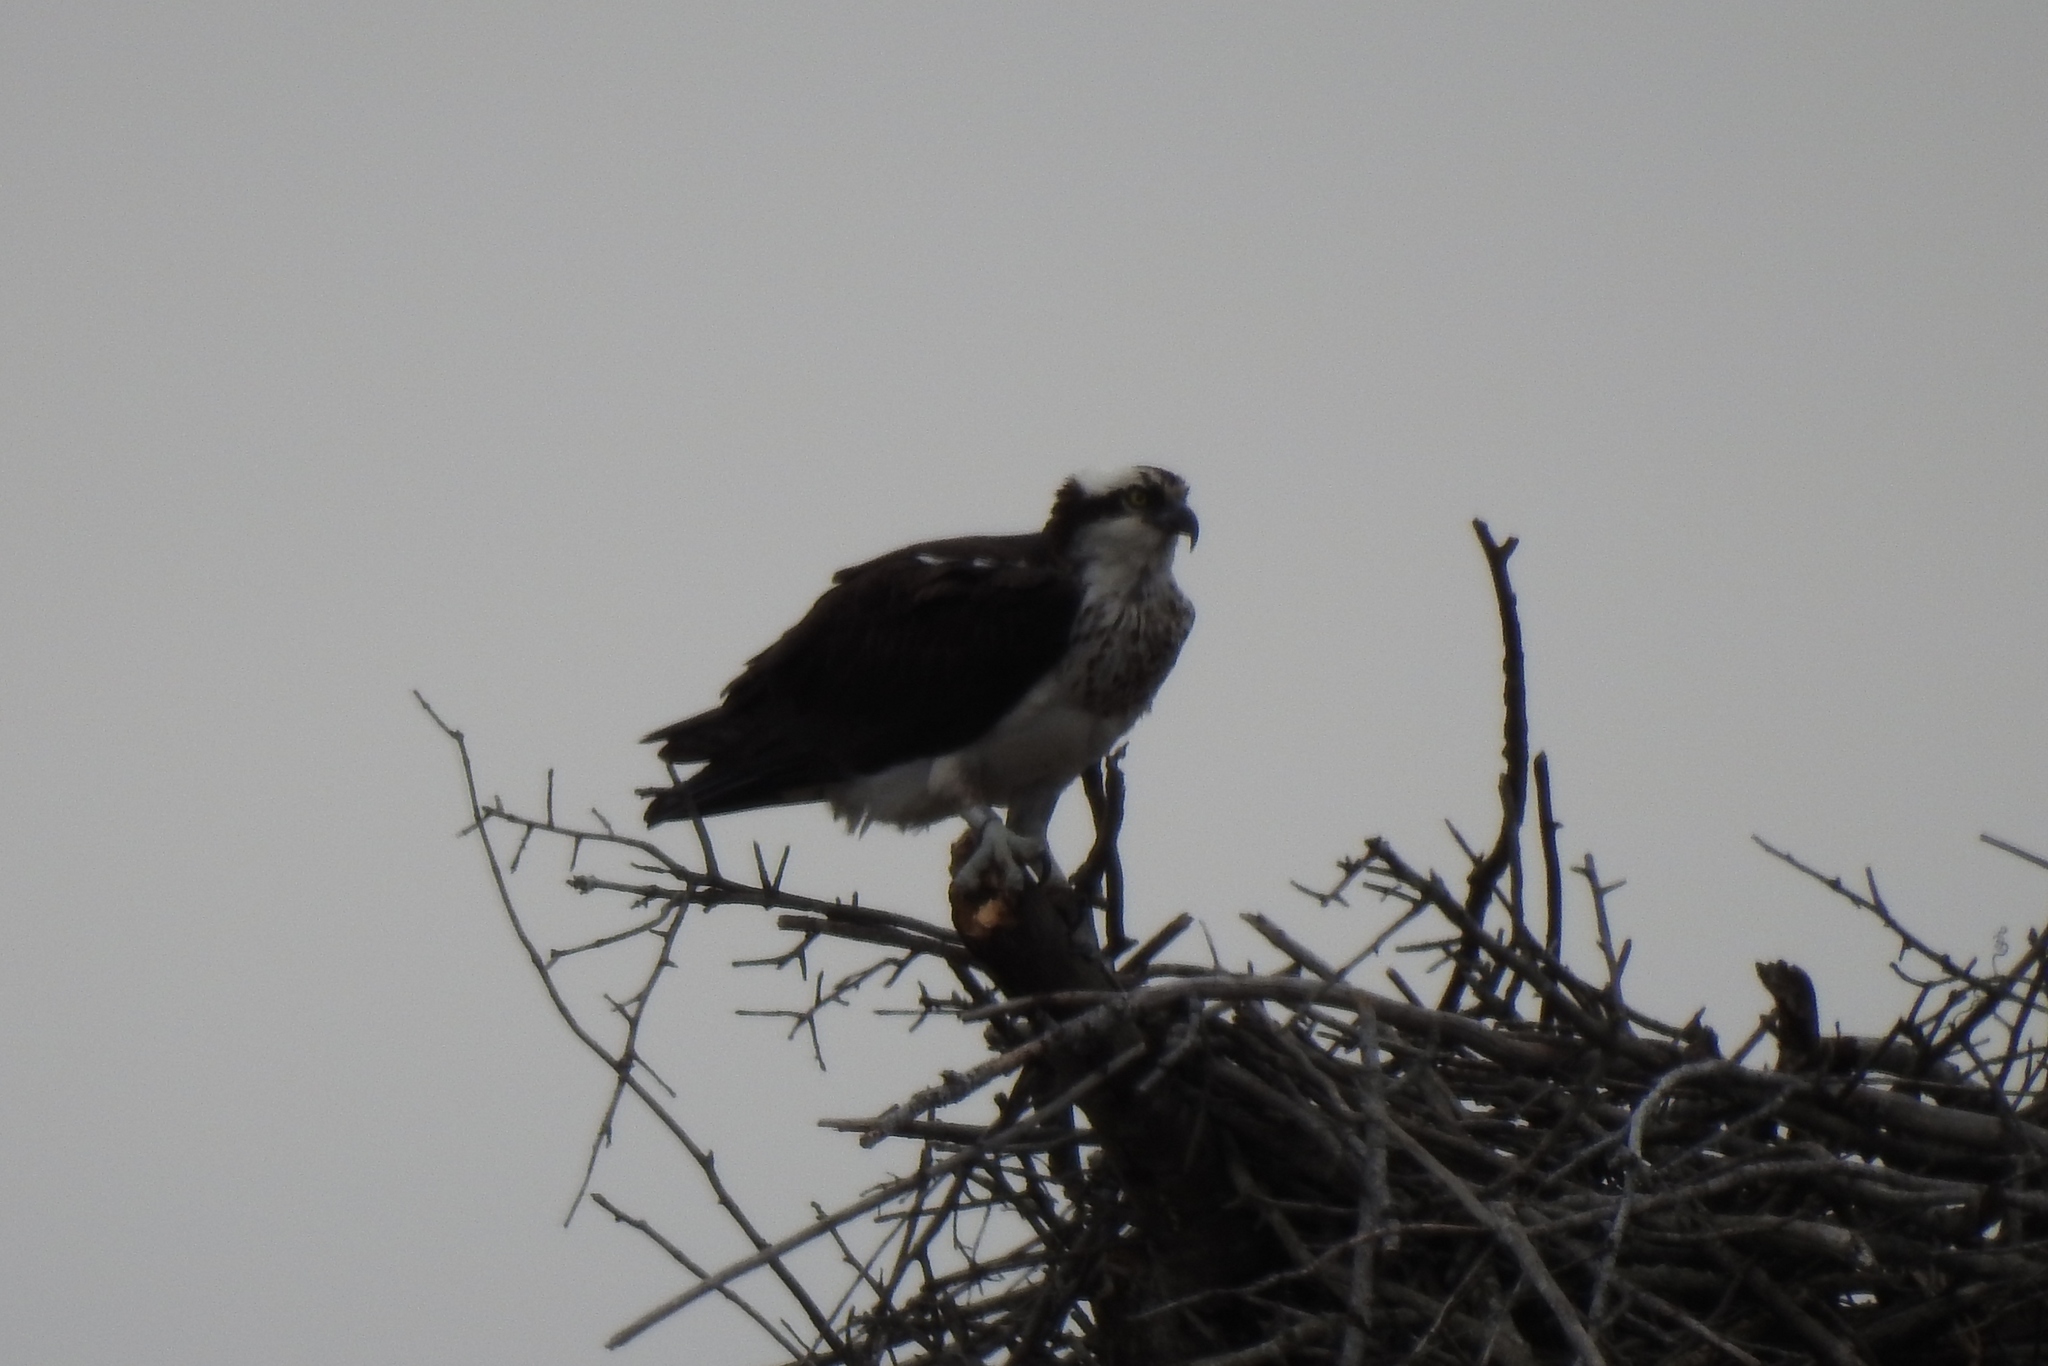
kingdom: Animalia
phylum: Chordata
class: Aves
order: Accipitriformes
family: Pandionidae
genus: Pandion
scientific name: Pandion haliaetus
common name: Osprey
